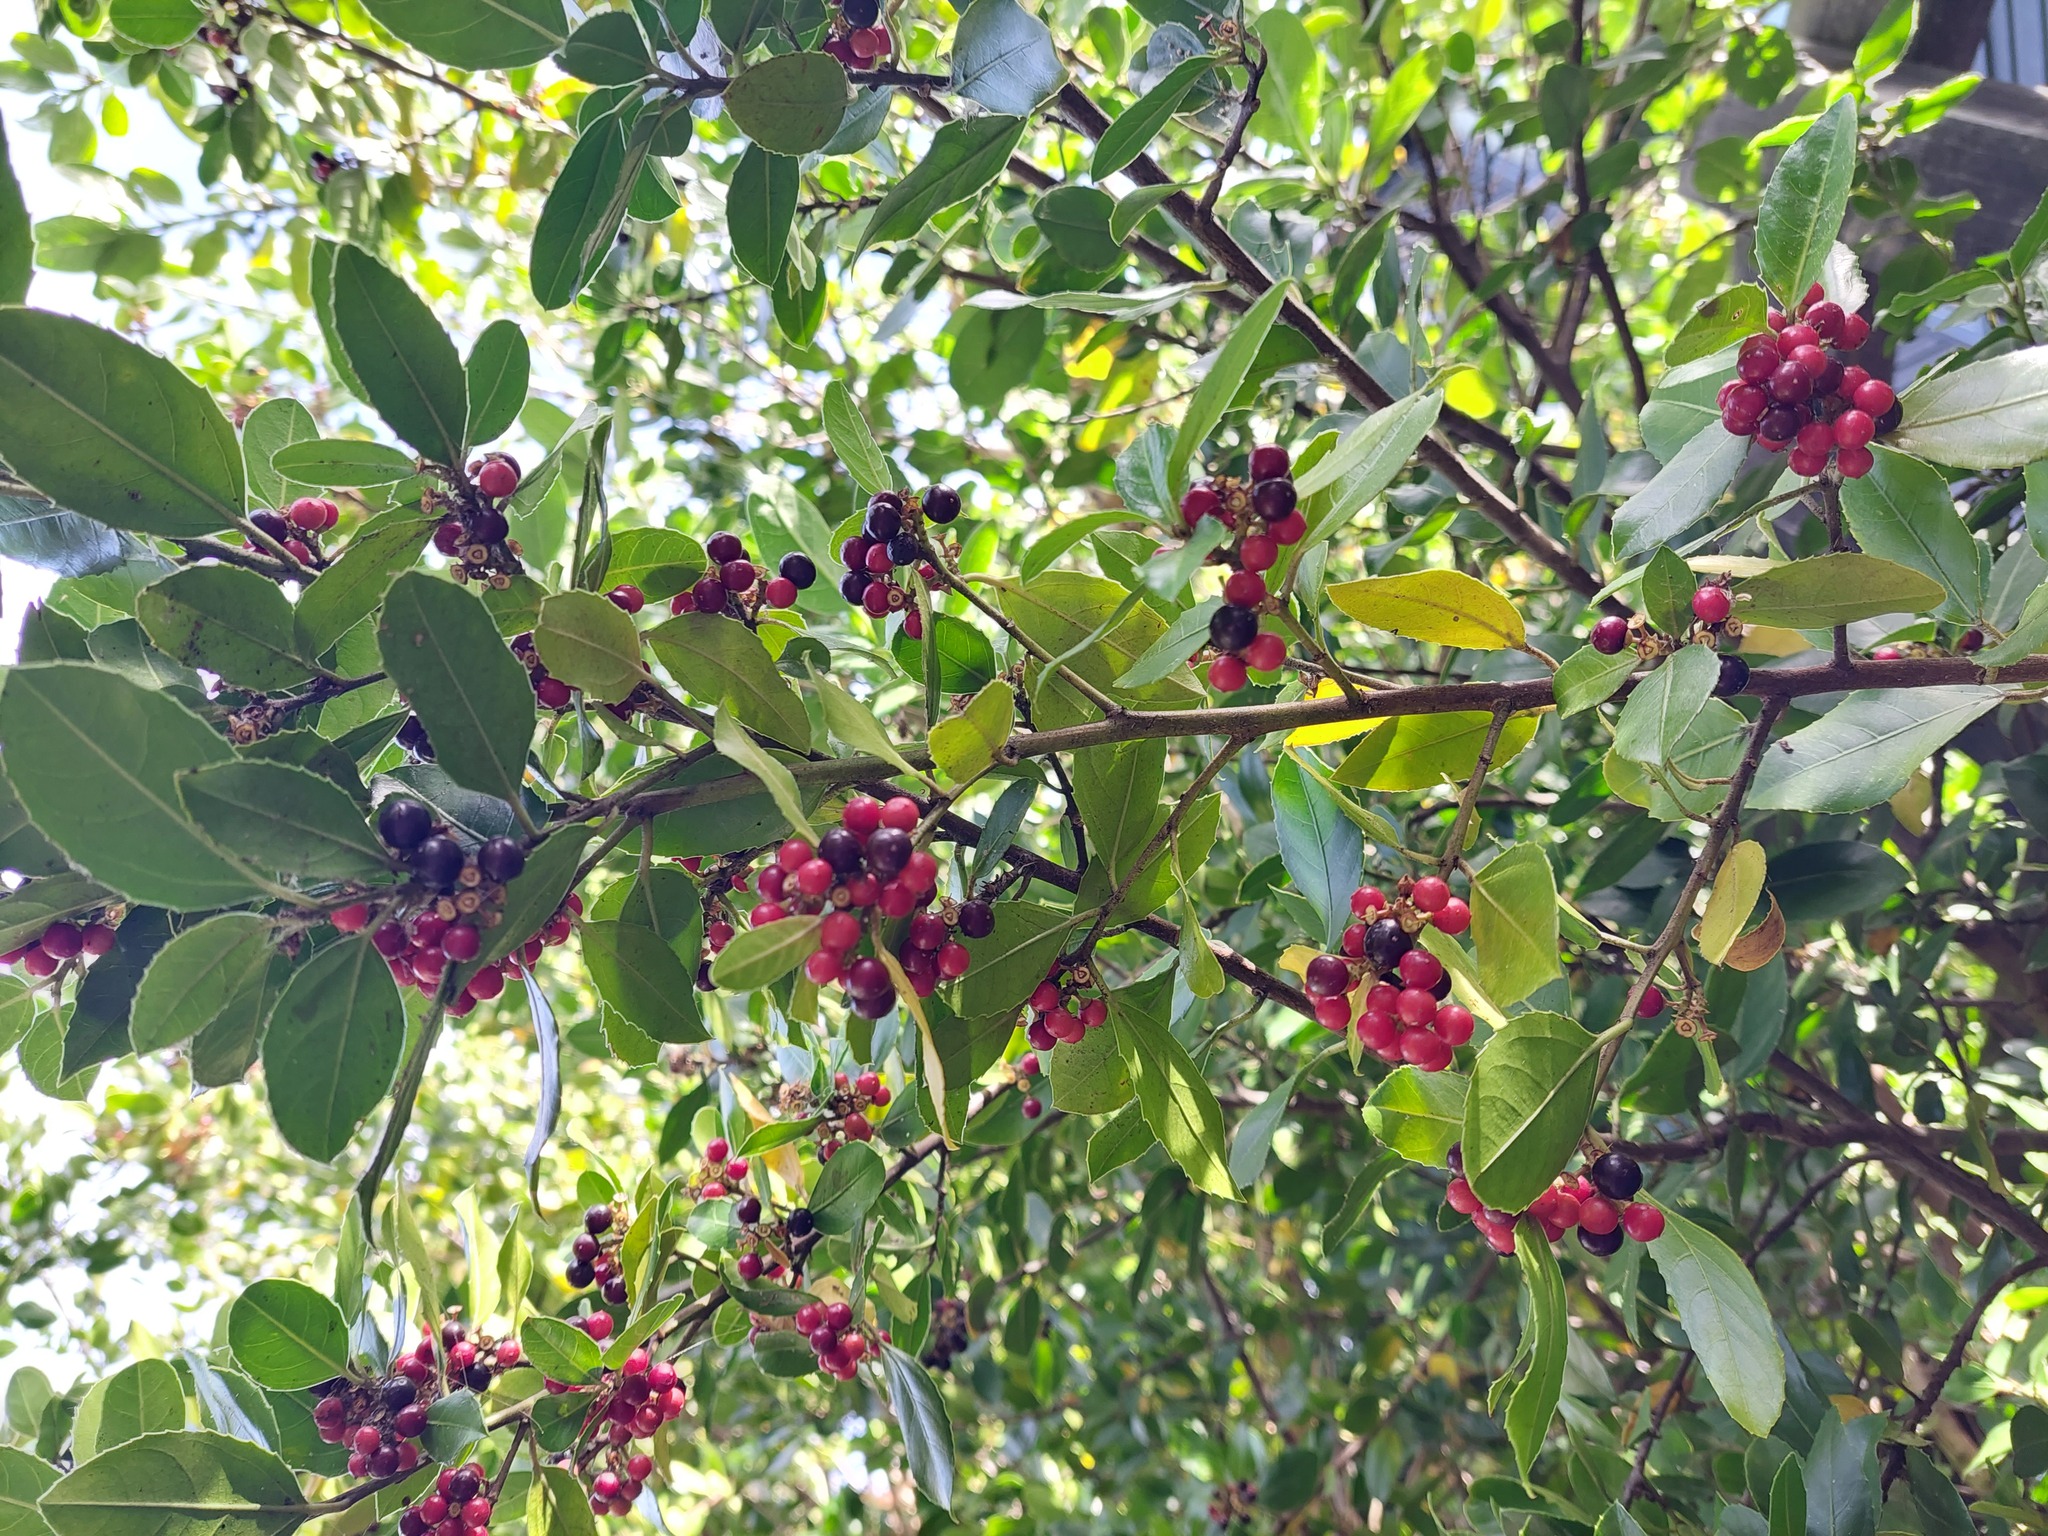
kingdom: Plantae
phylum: Tracheophyta
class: Magnoliopsida
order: Rosales
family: Rhamnaceae
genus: Rhamnus
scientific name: Rhamnus alaternus
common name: Mediterranean buckthorn
